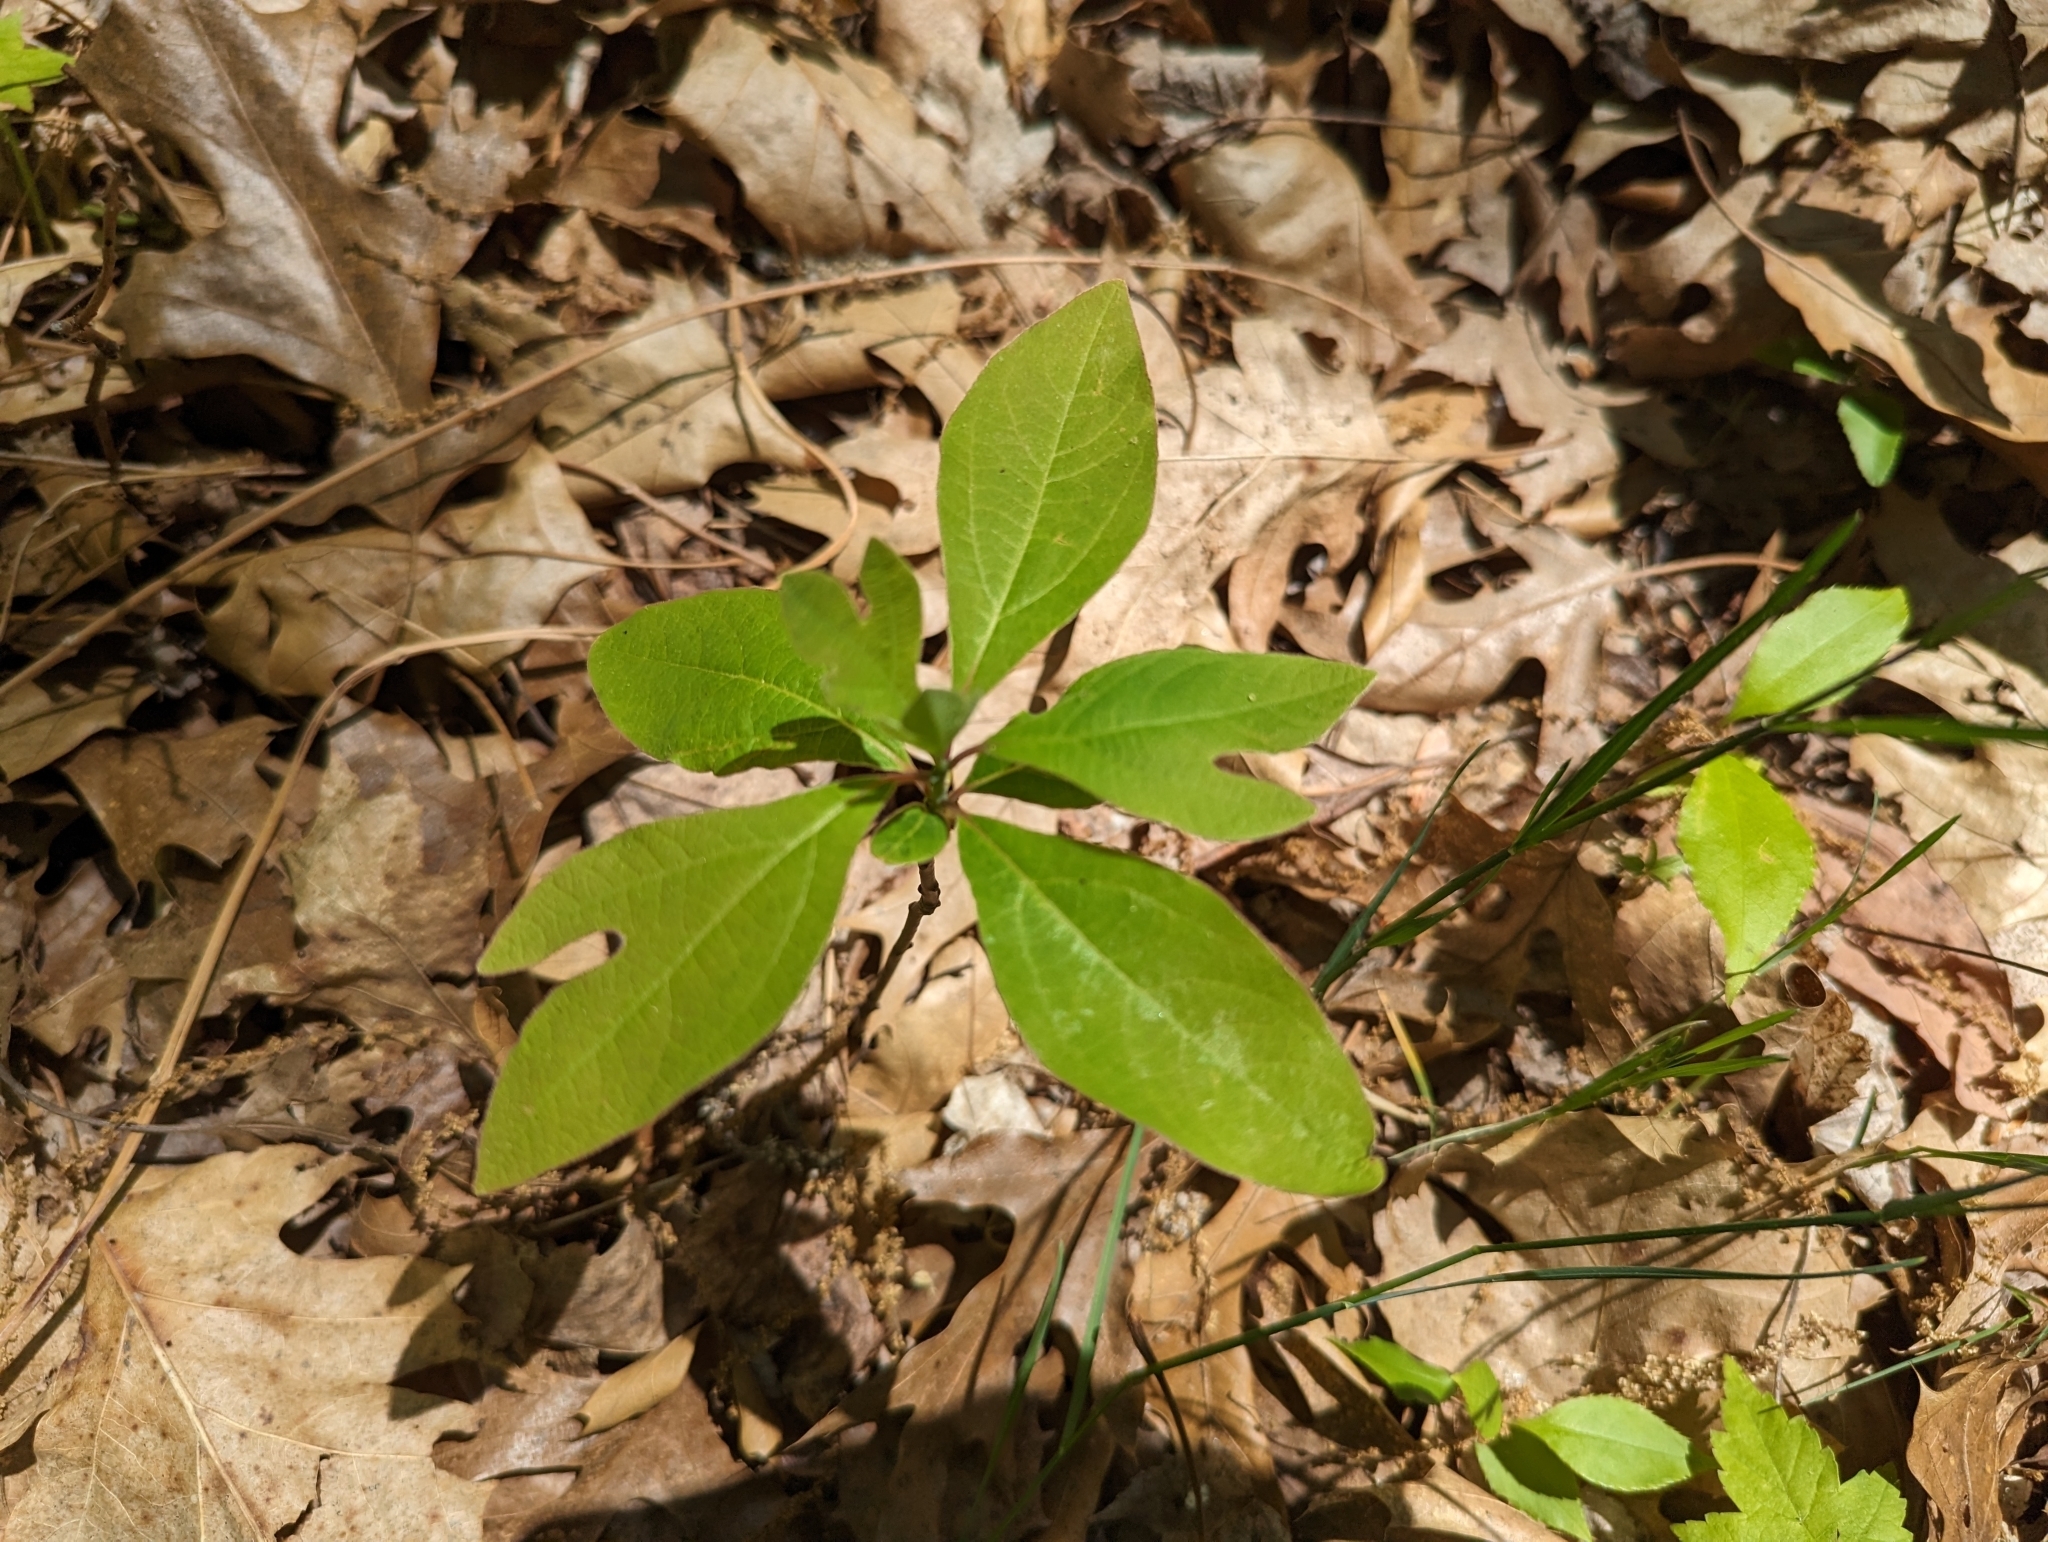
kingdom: Plantae
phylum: Tracheophyta
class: Magnoliopsida
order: Laurales
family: Lauraceae
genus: Sassafras
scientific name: Sassafras albidum
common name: Sassafras
